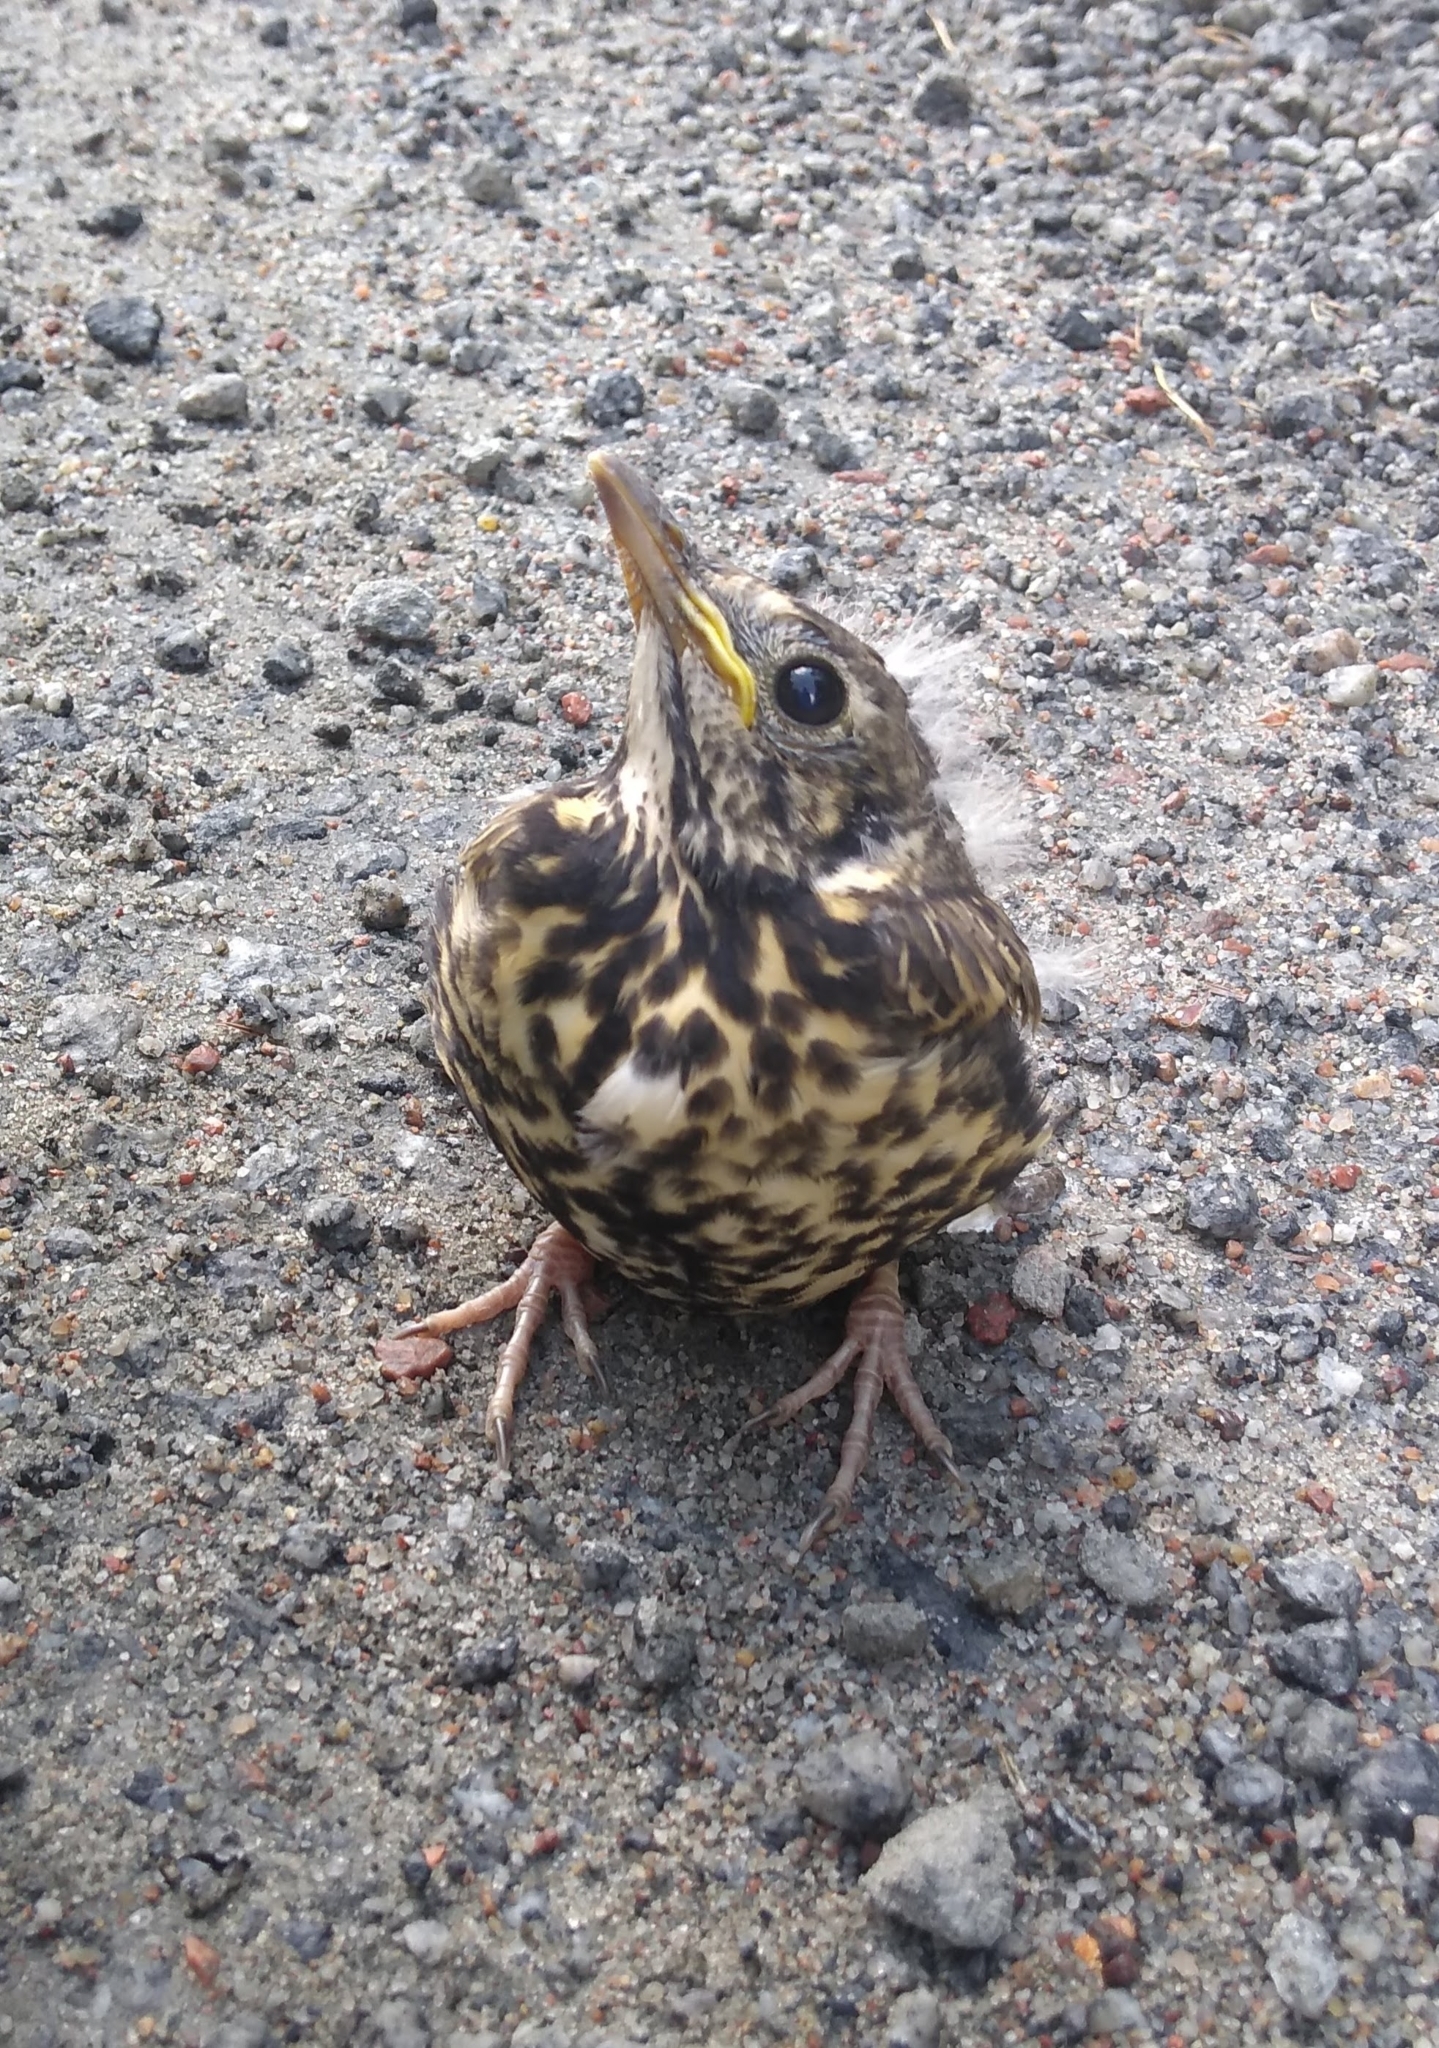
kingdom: Animalia
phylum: Chordata
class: Aves
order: Passeriformes
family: Turdidae
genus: Turdus
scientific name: Turdus pilaris
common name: Fieldfare
